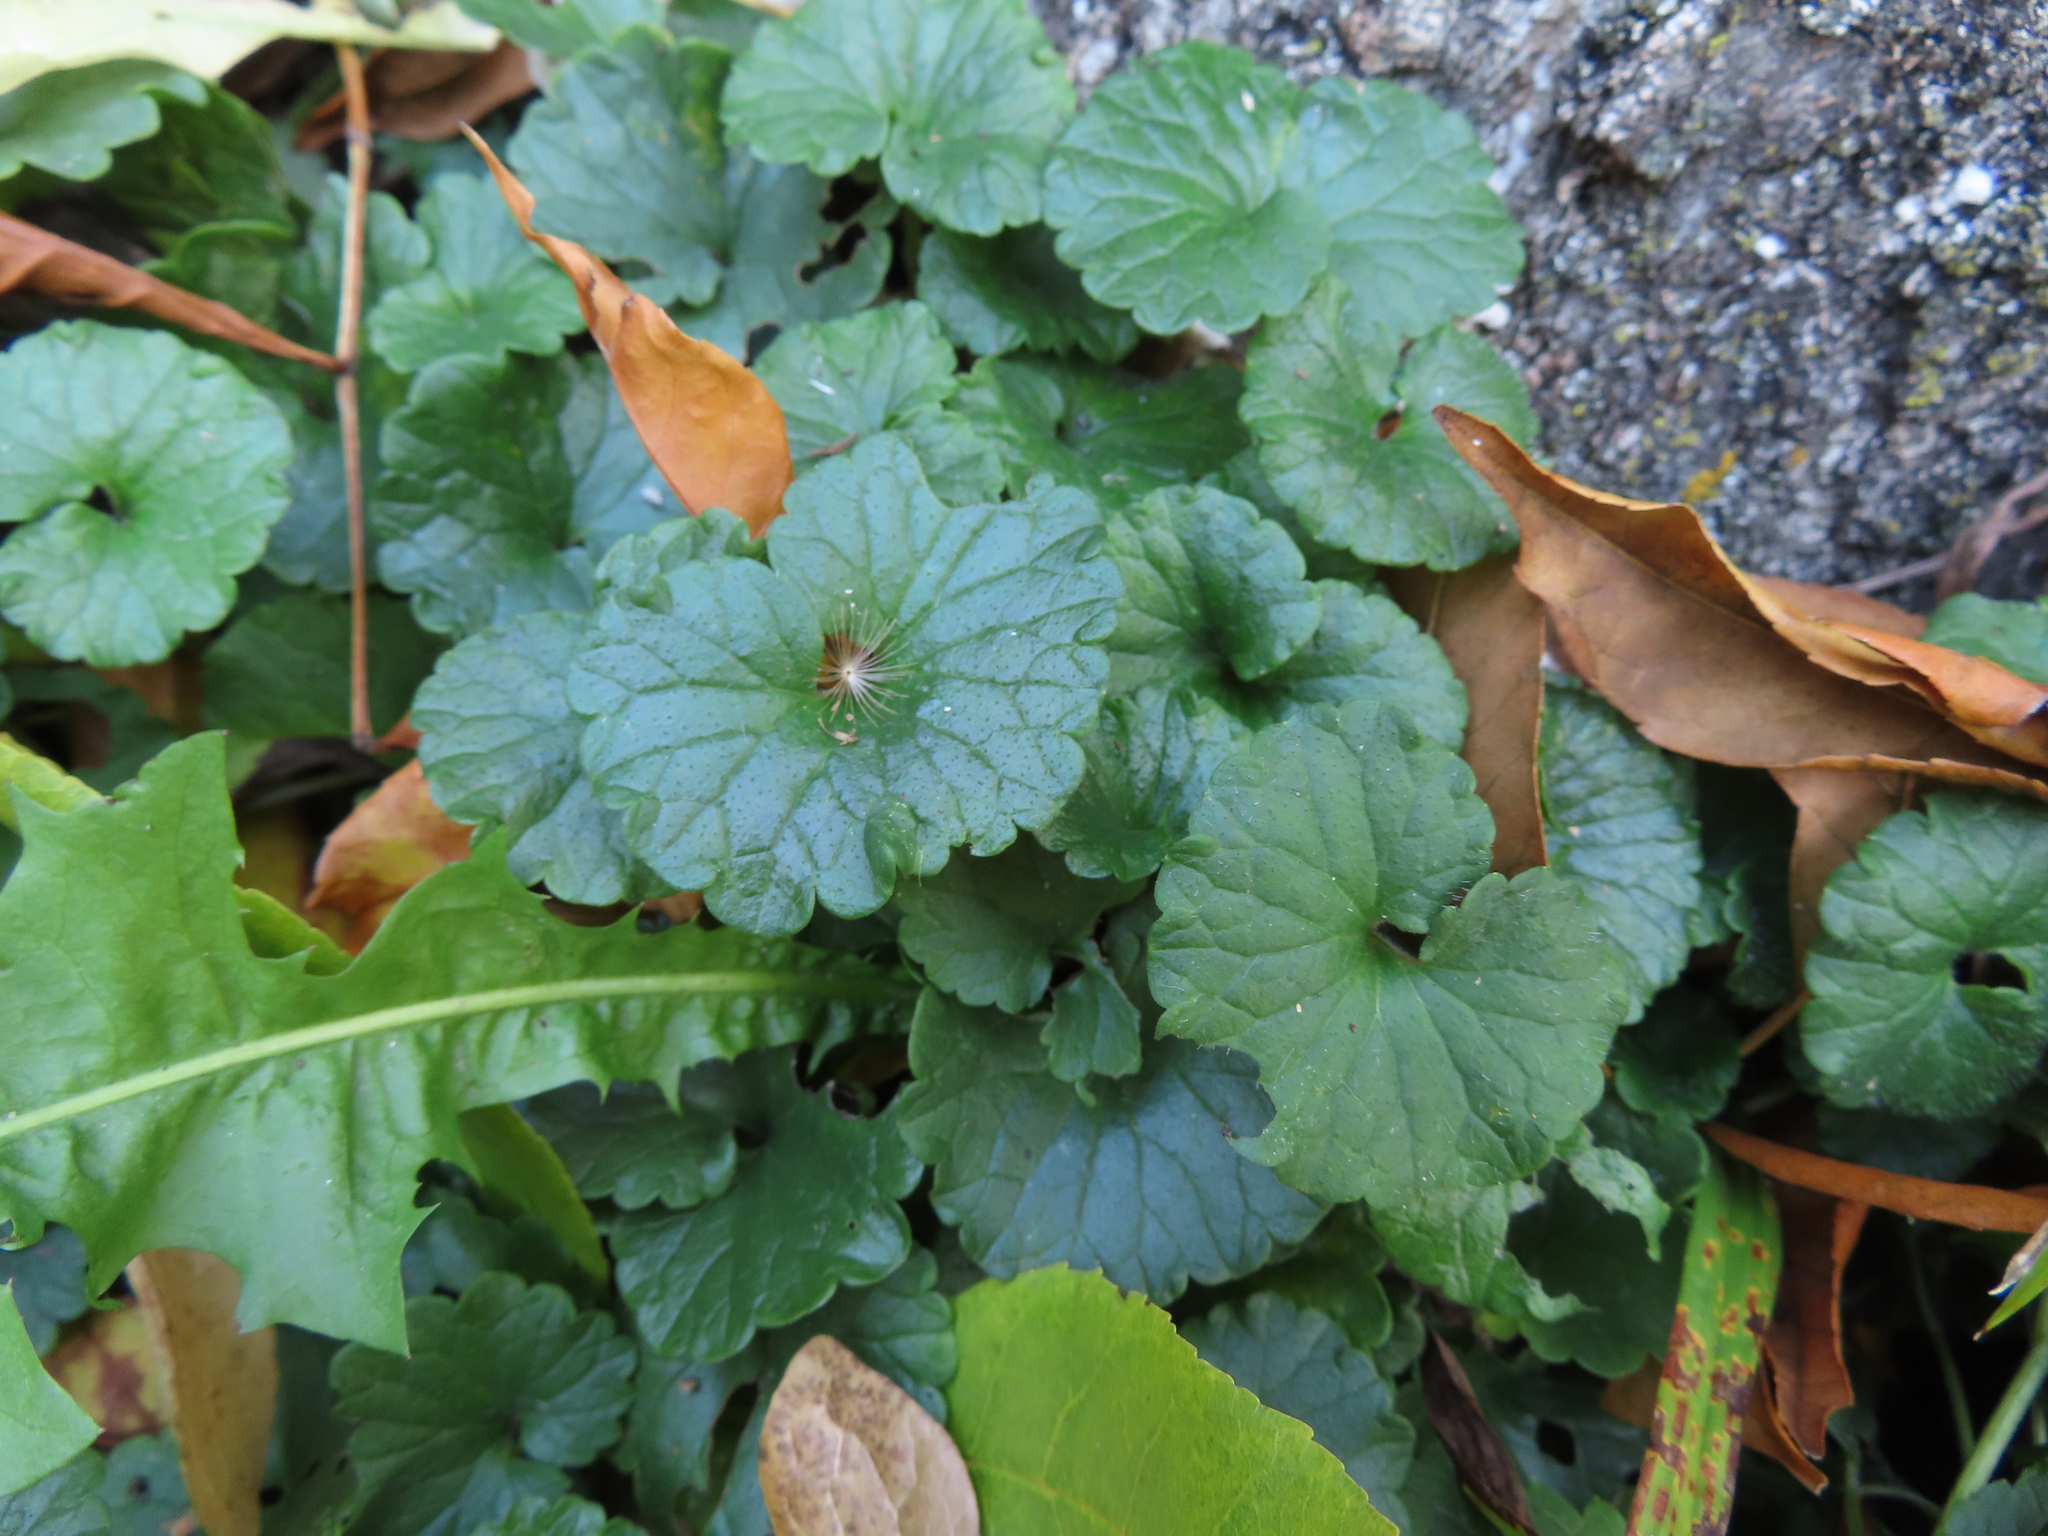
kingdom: Plantae
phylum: Tracheophyta
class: Magnoliopsida
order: Lamiales
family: Lamiaceae
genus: Glechoma
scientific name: Glechoma hederacea
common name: Ground ivy
